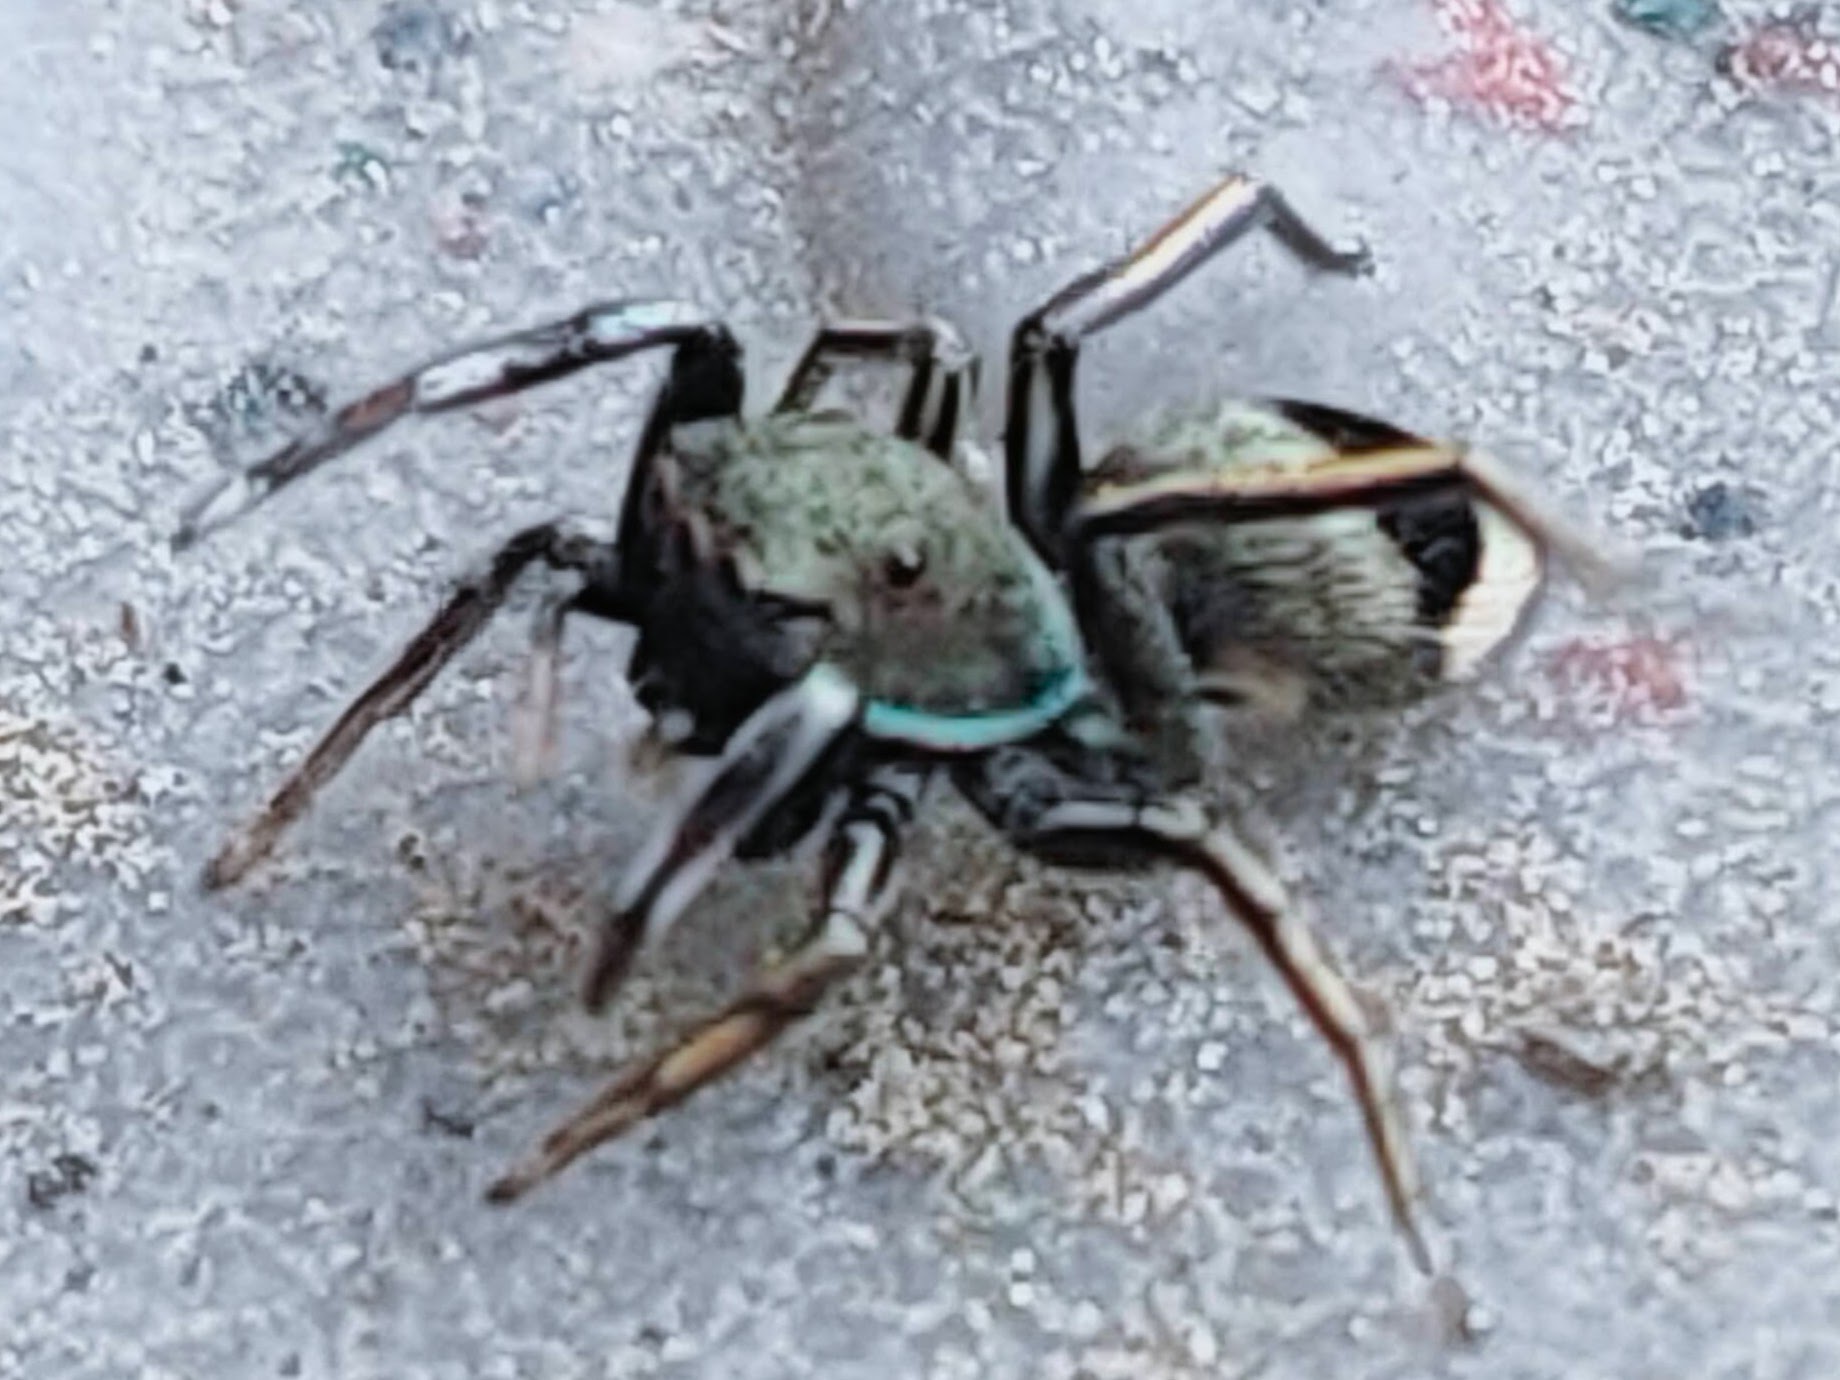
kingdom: Animalia
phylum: Arthropoda
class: Arachnida
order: Araneae
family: Salticidae
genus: Siler
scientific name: Siler cupreus
